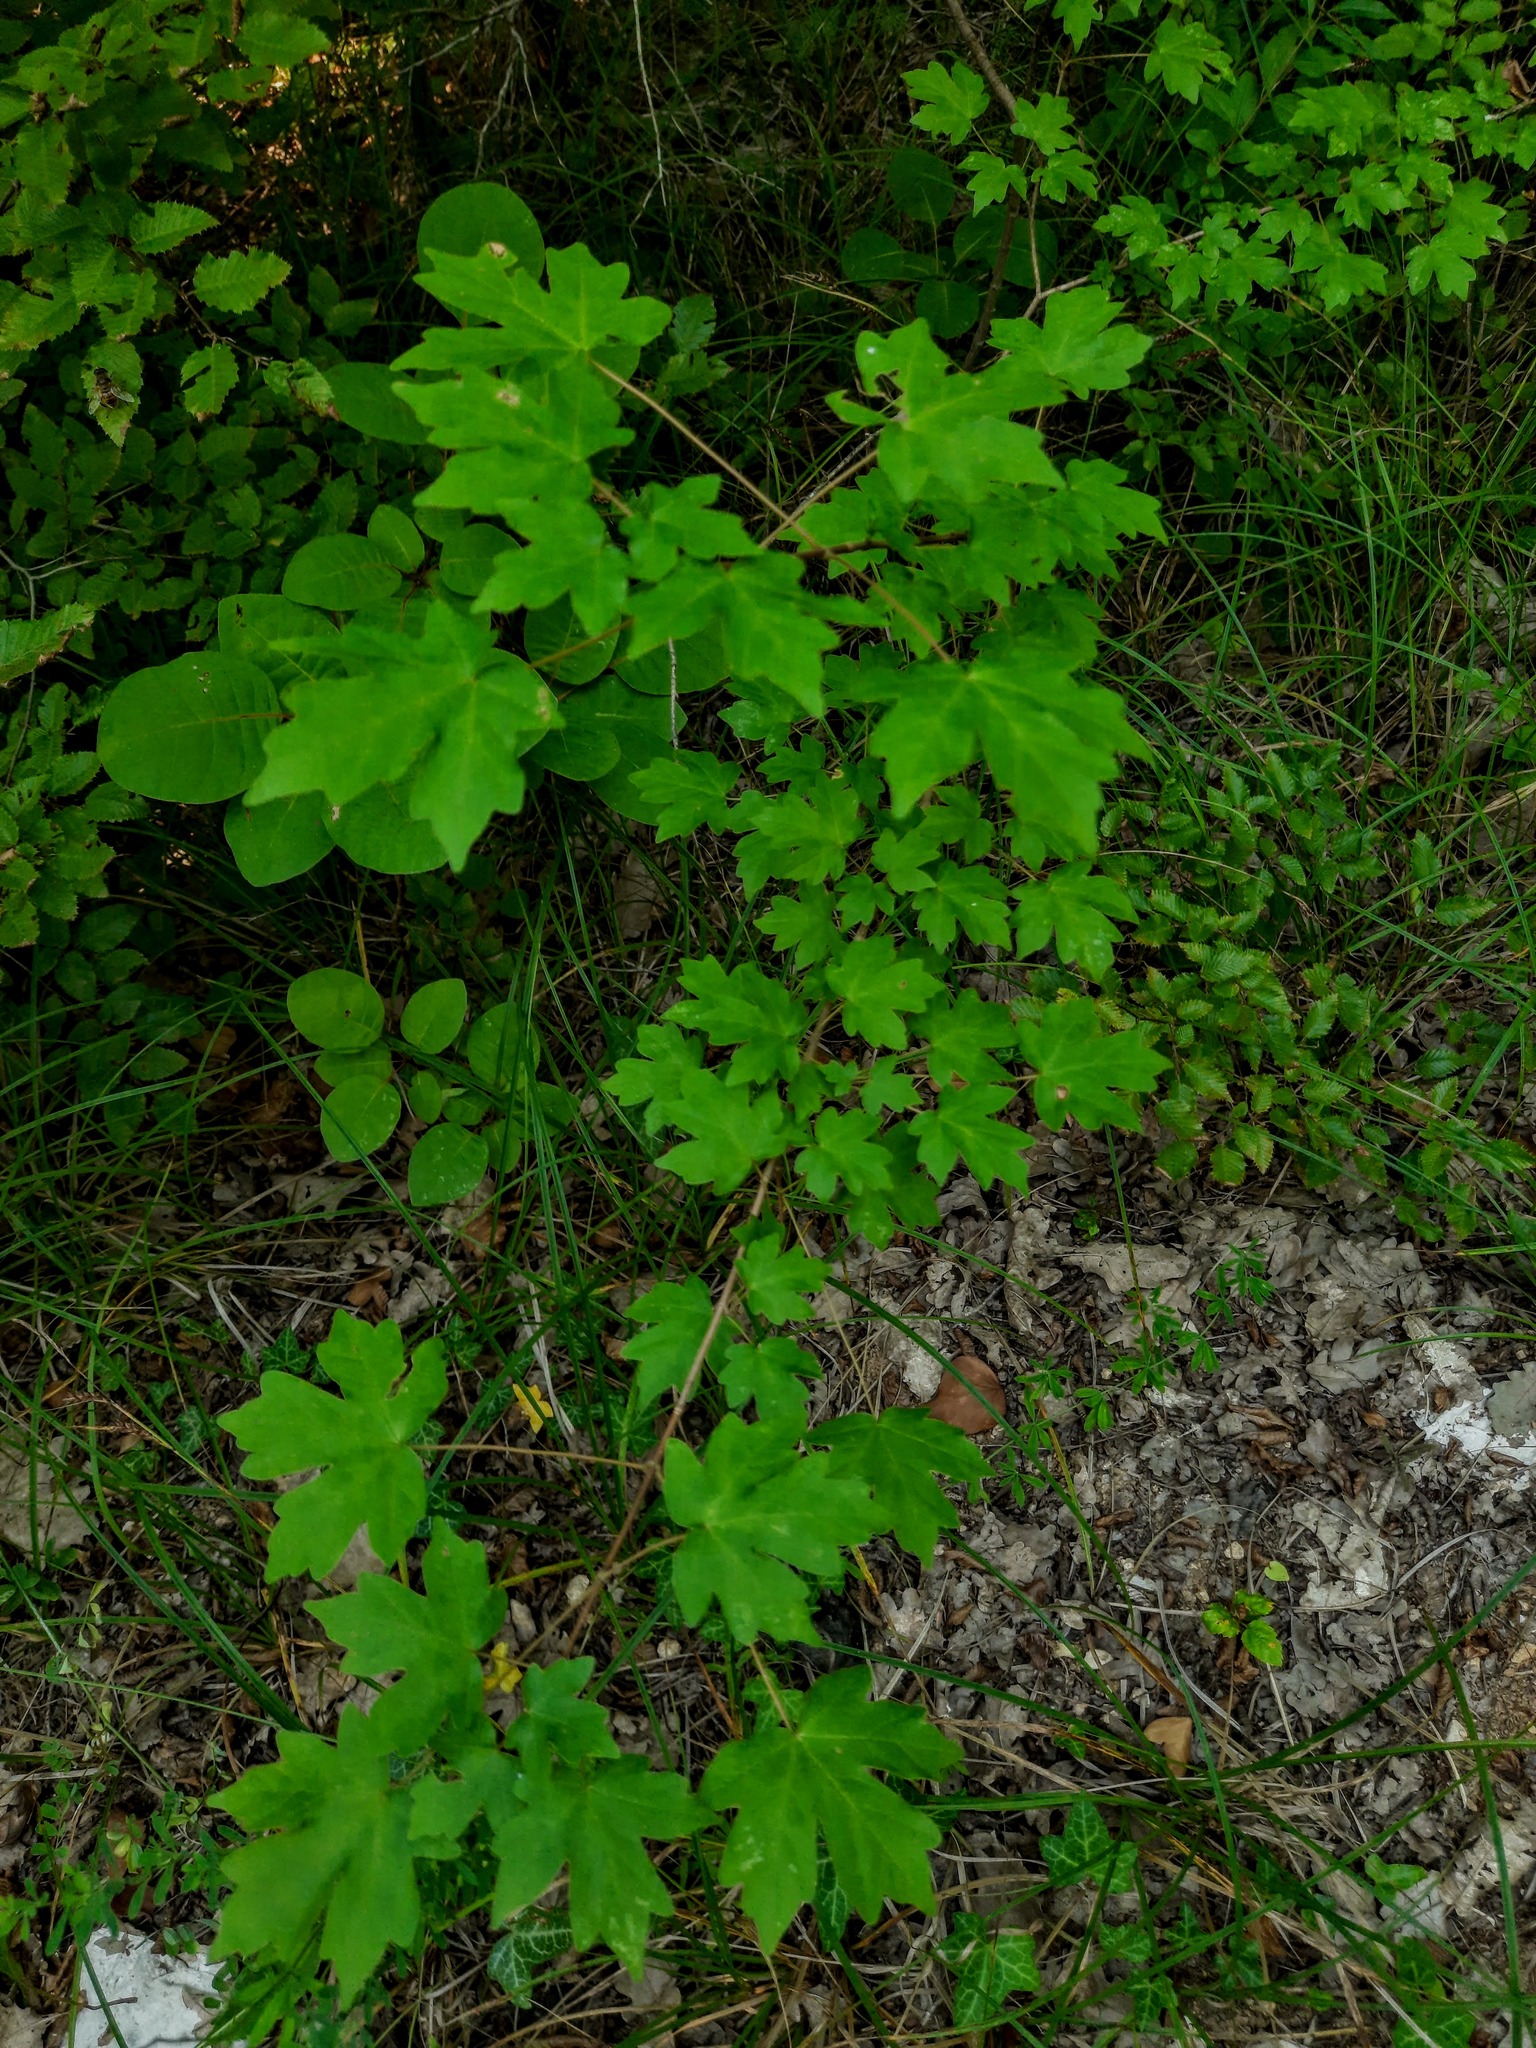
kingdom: Plantae
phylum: Tracheophyta
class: Magnoliopsida
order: Sapindales
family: Sapindaceae
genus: Acer
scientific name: Acer campestre
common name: Field maple
